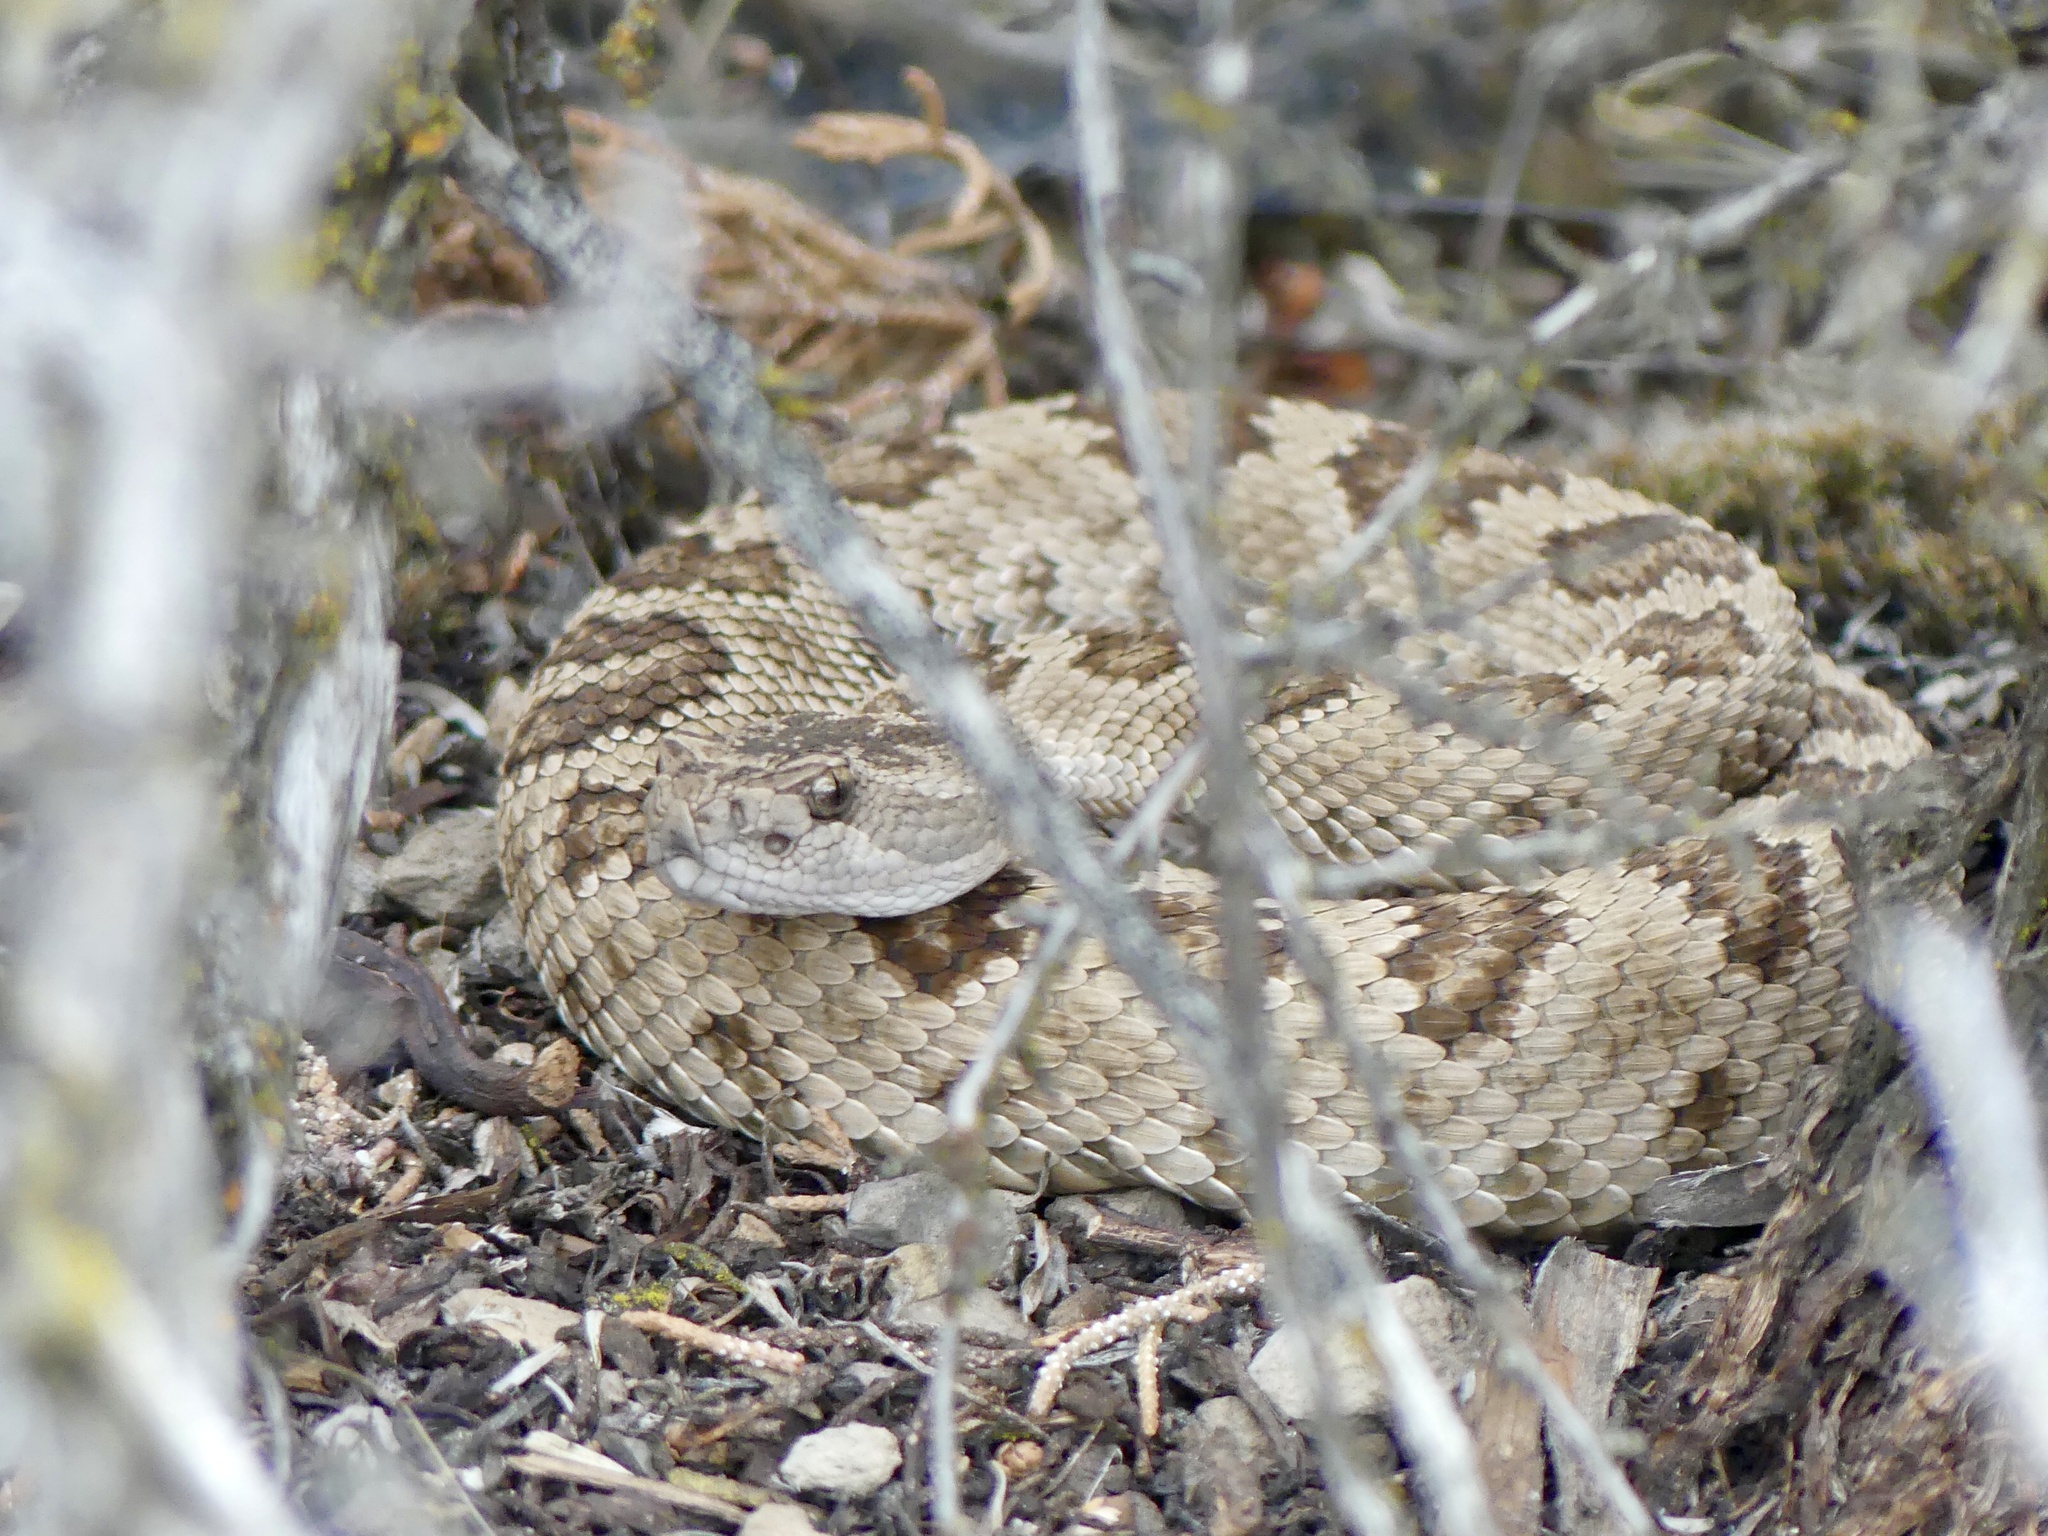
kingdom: Animalia
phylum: Chordata
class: Squamata
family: Viperidae
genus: Crotalus
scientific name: Crotalus oreganus
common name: Abyssus
